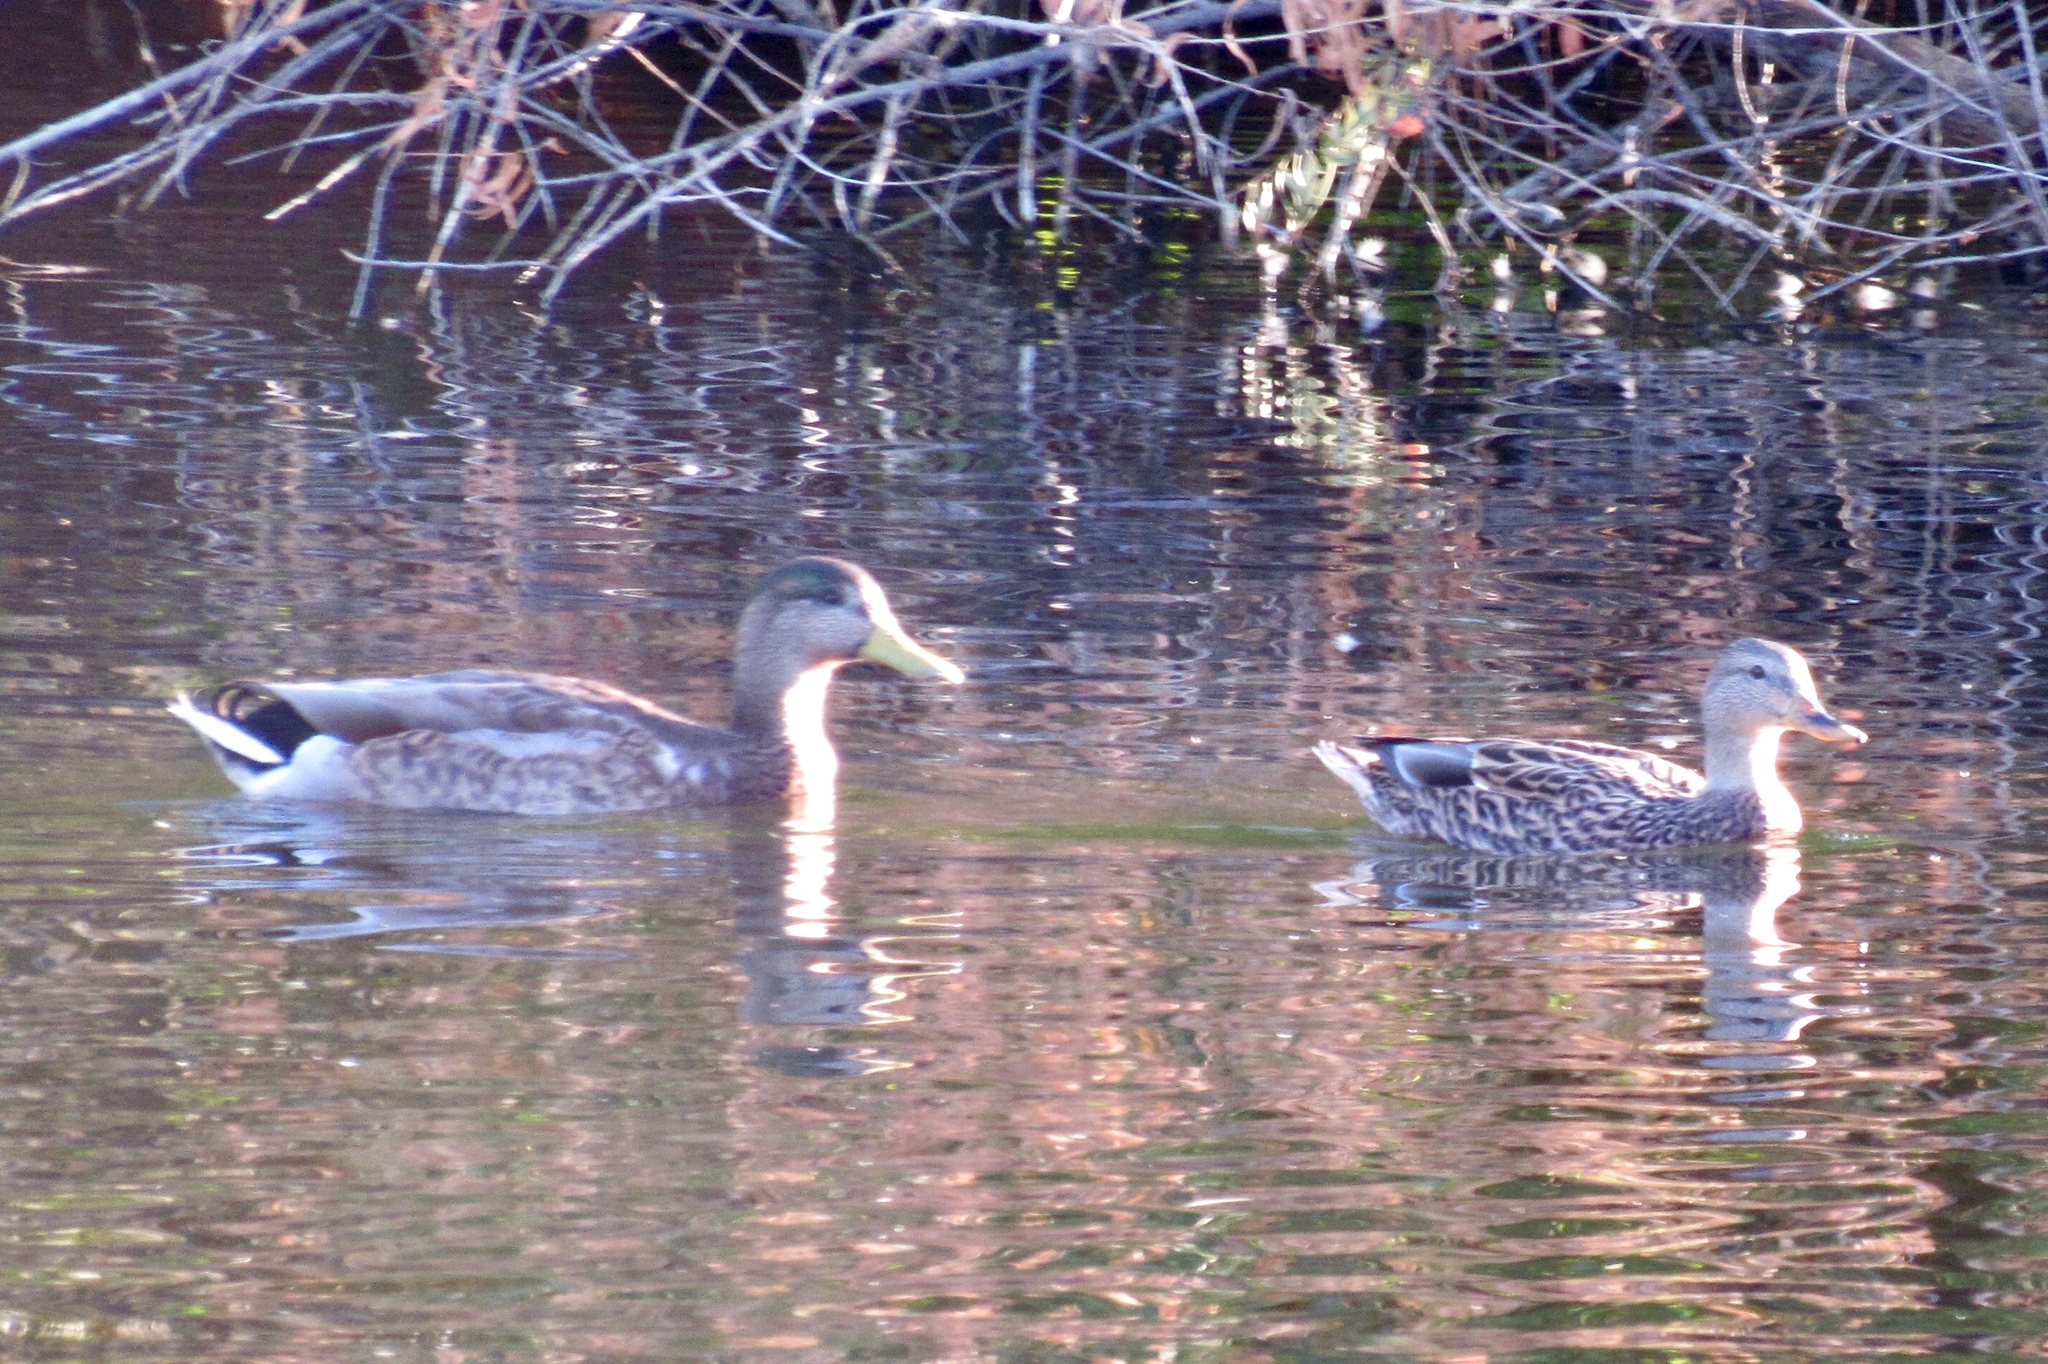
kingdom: Animalia
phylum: Chordata
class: Aves
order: Anseriformes
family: Anatidae
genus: Anas
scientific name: Anas platyrhynchos
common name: Mallard
